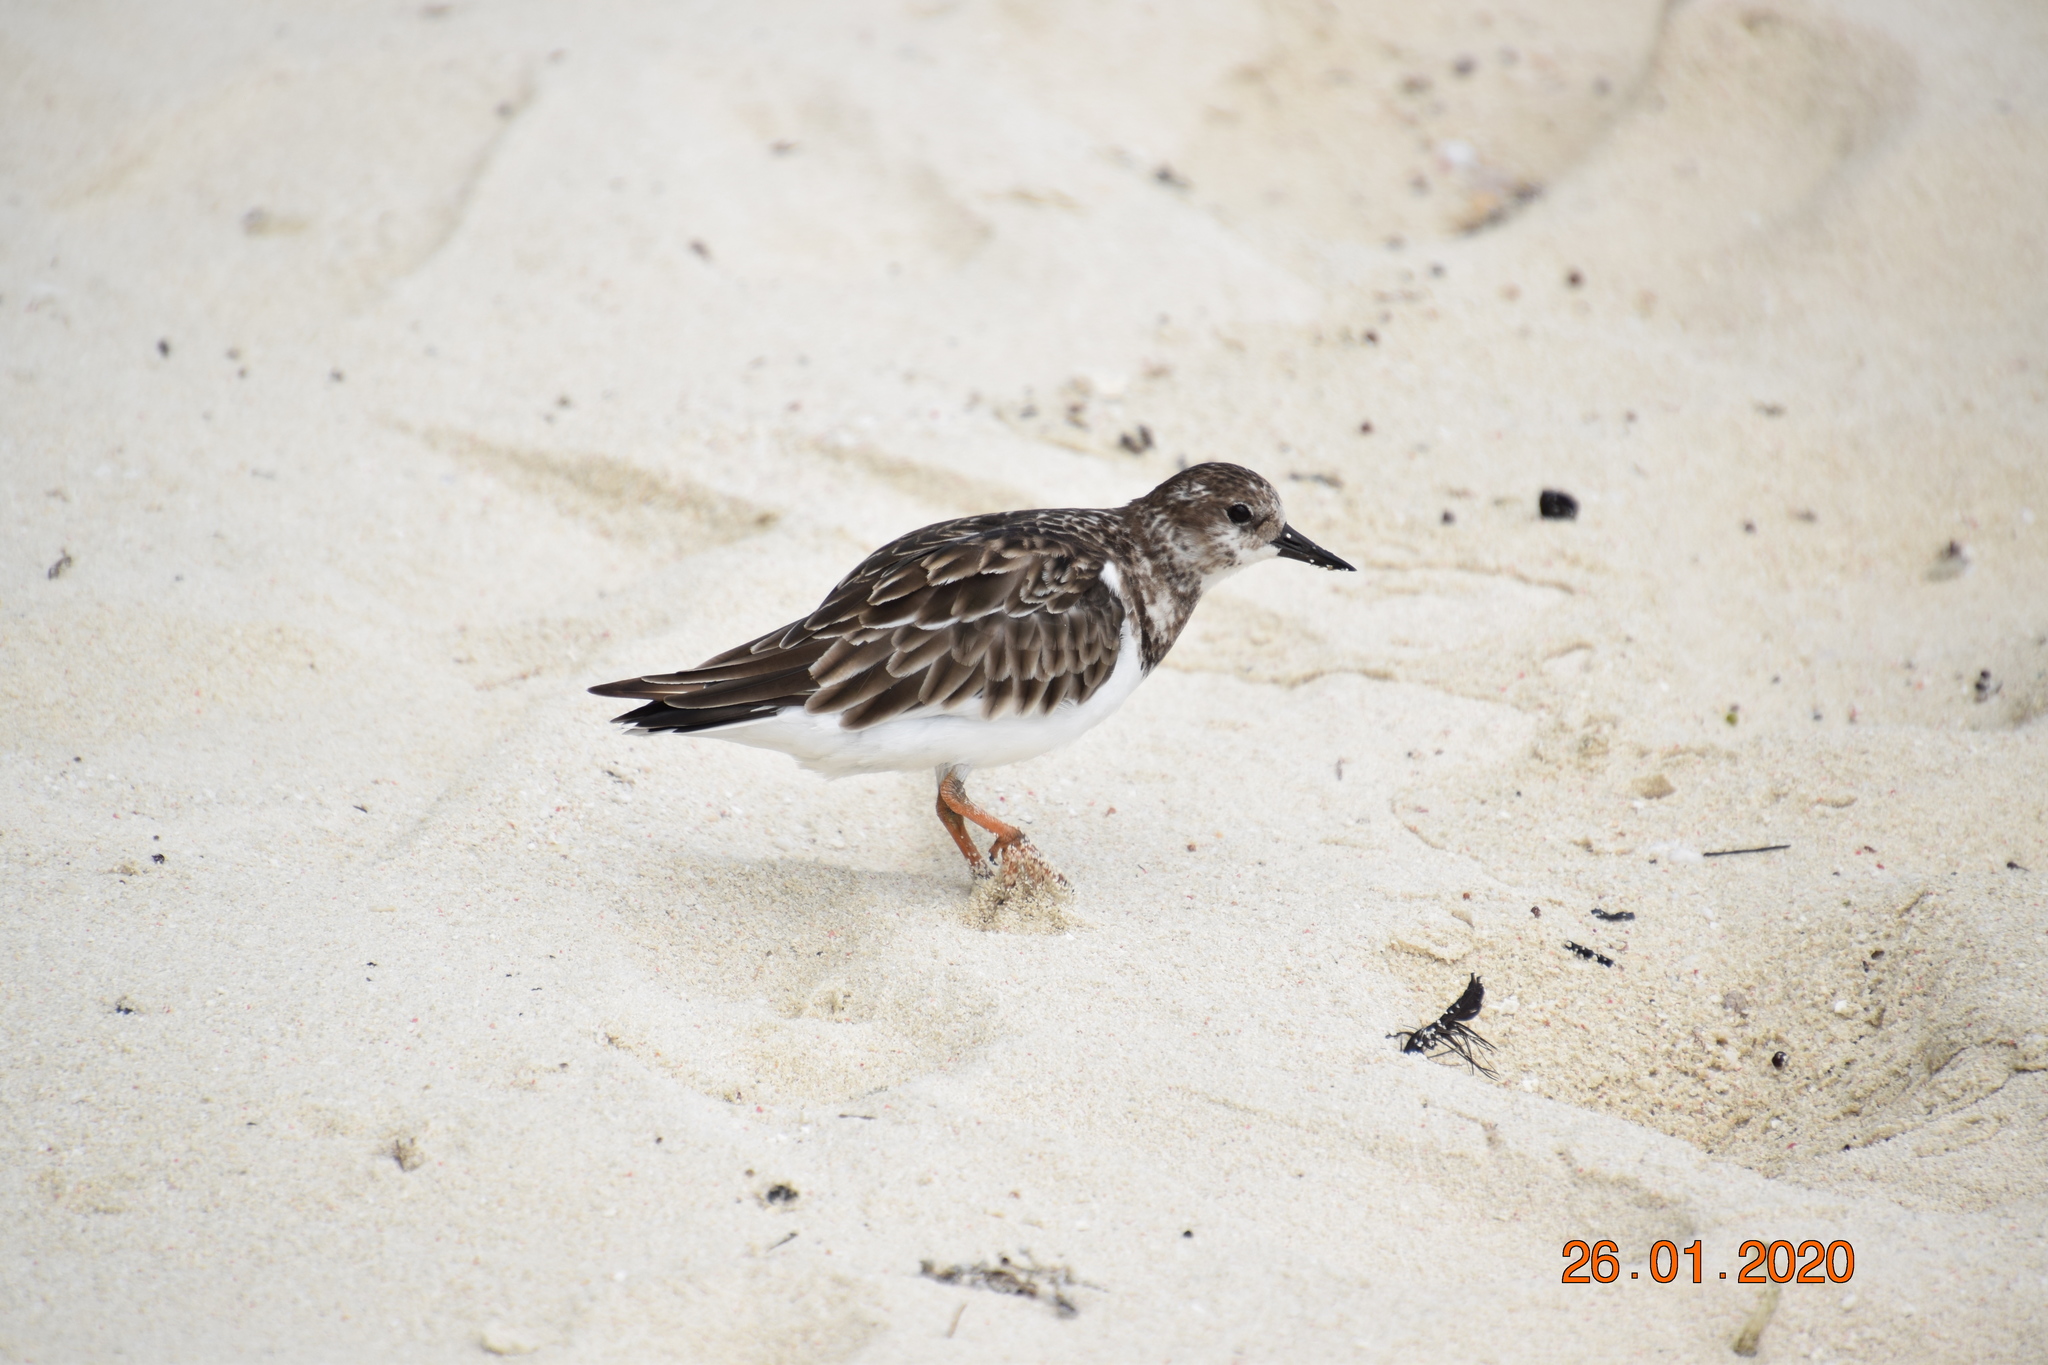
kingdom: Animalia
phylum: Chordata
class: Aves
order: Charadriiformes
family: Scolopacidae
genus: Arenaria
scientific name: Arenaria interpres
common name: Ruddy turnstone
